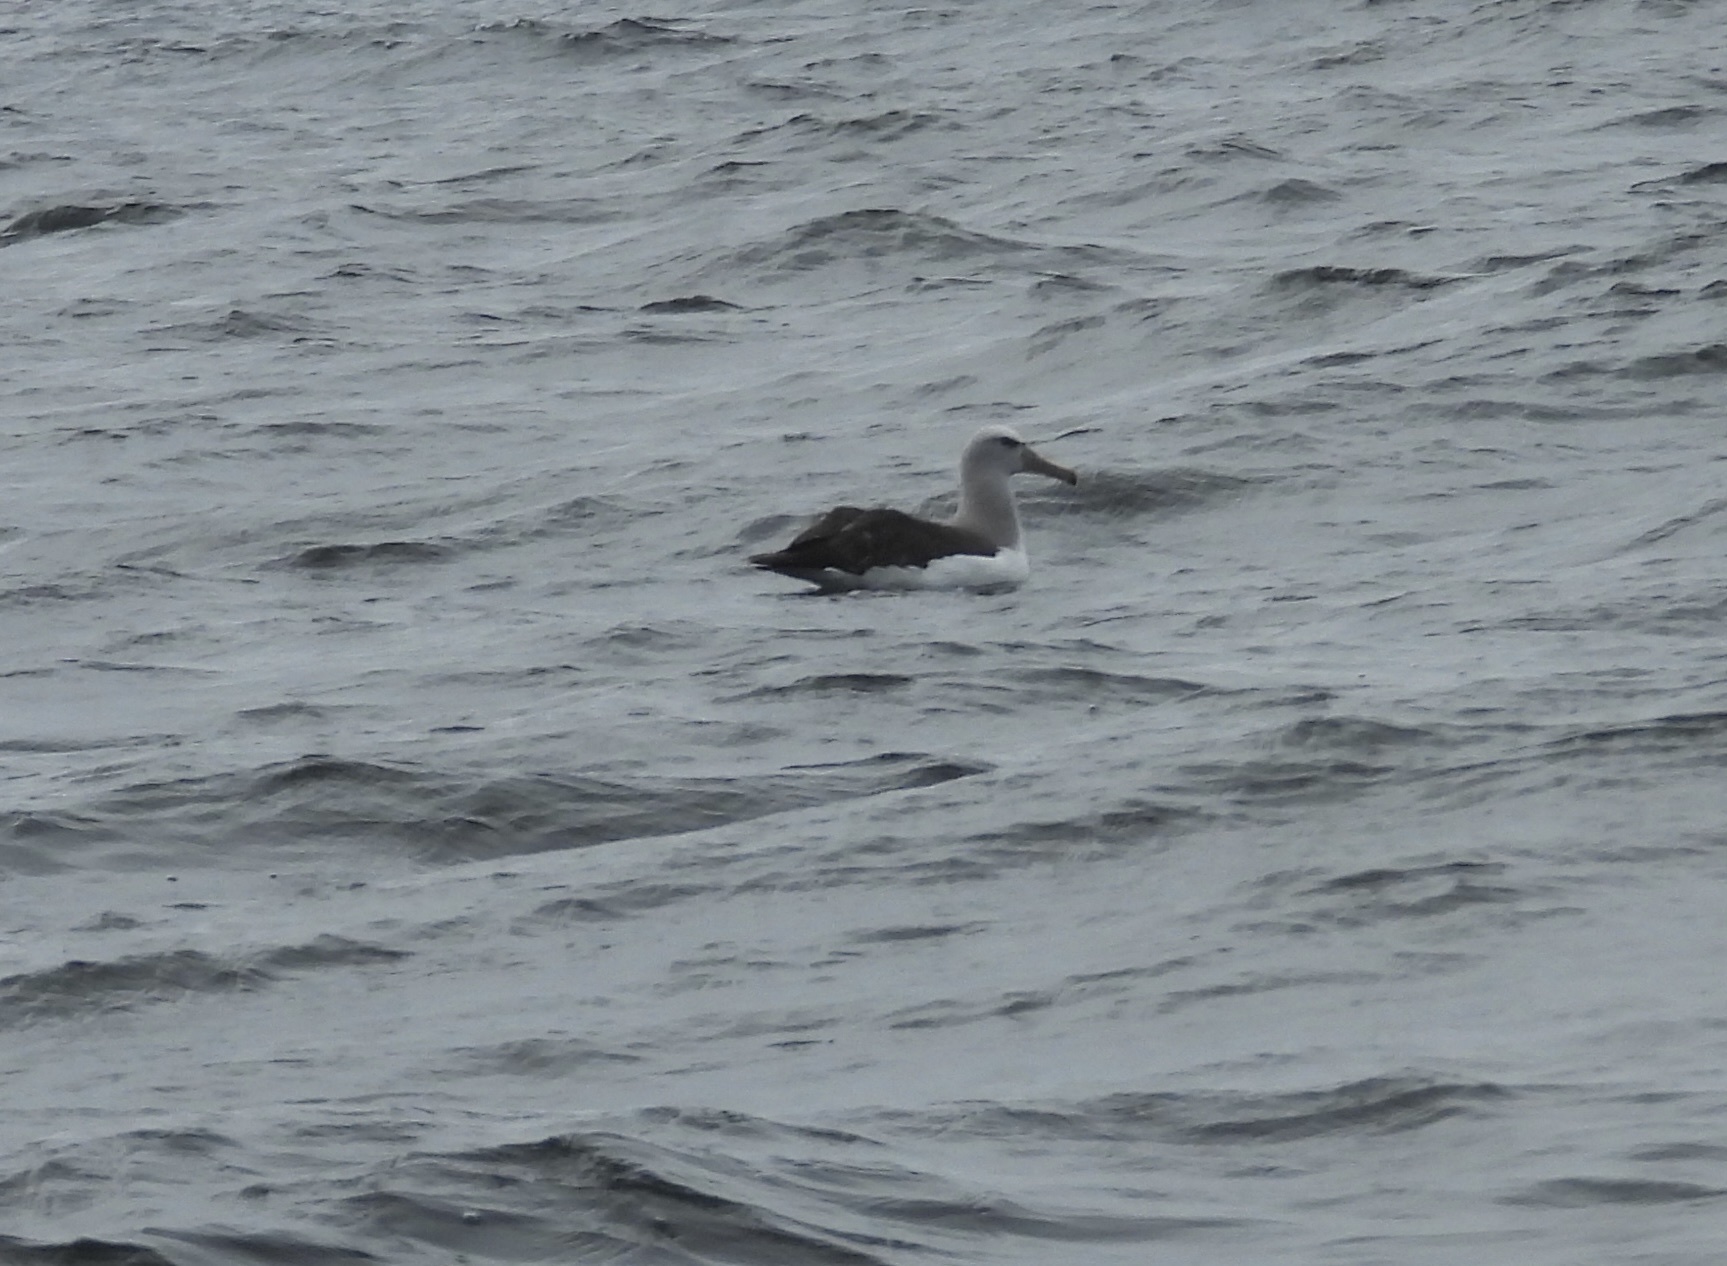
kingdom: Animalia
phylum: Chordata
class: Aves
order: Procellariiformes
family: Diomedeidae
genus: Thalassarche
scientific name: Thalassarche salvini
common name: Salvin's albatross
